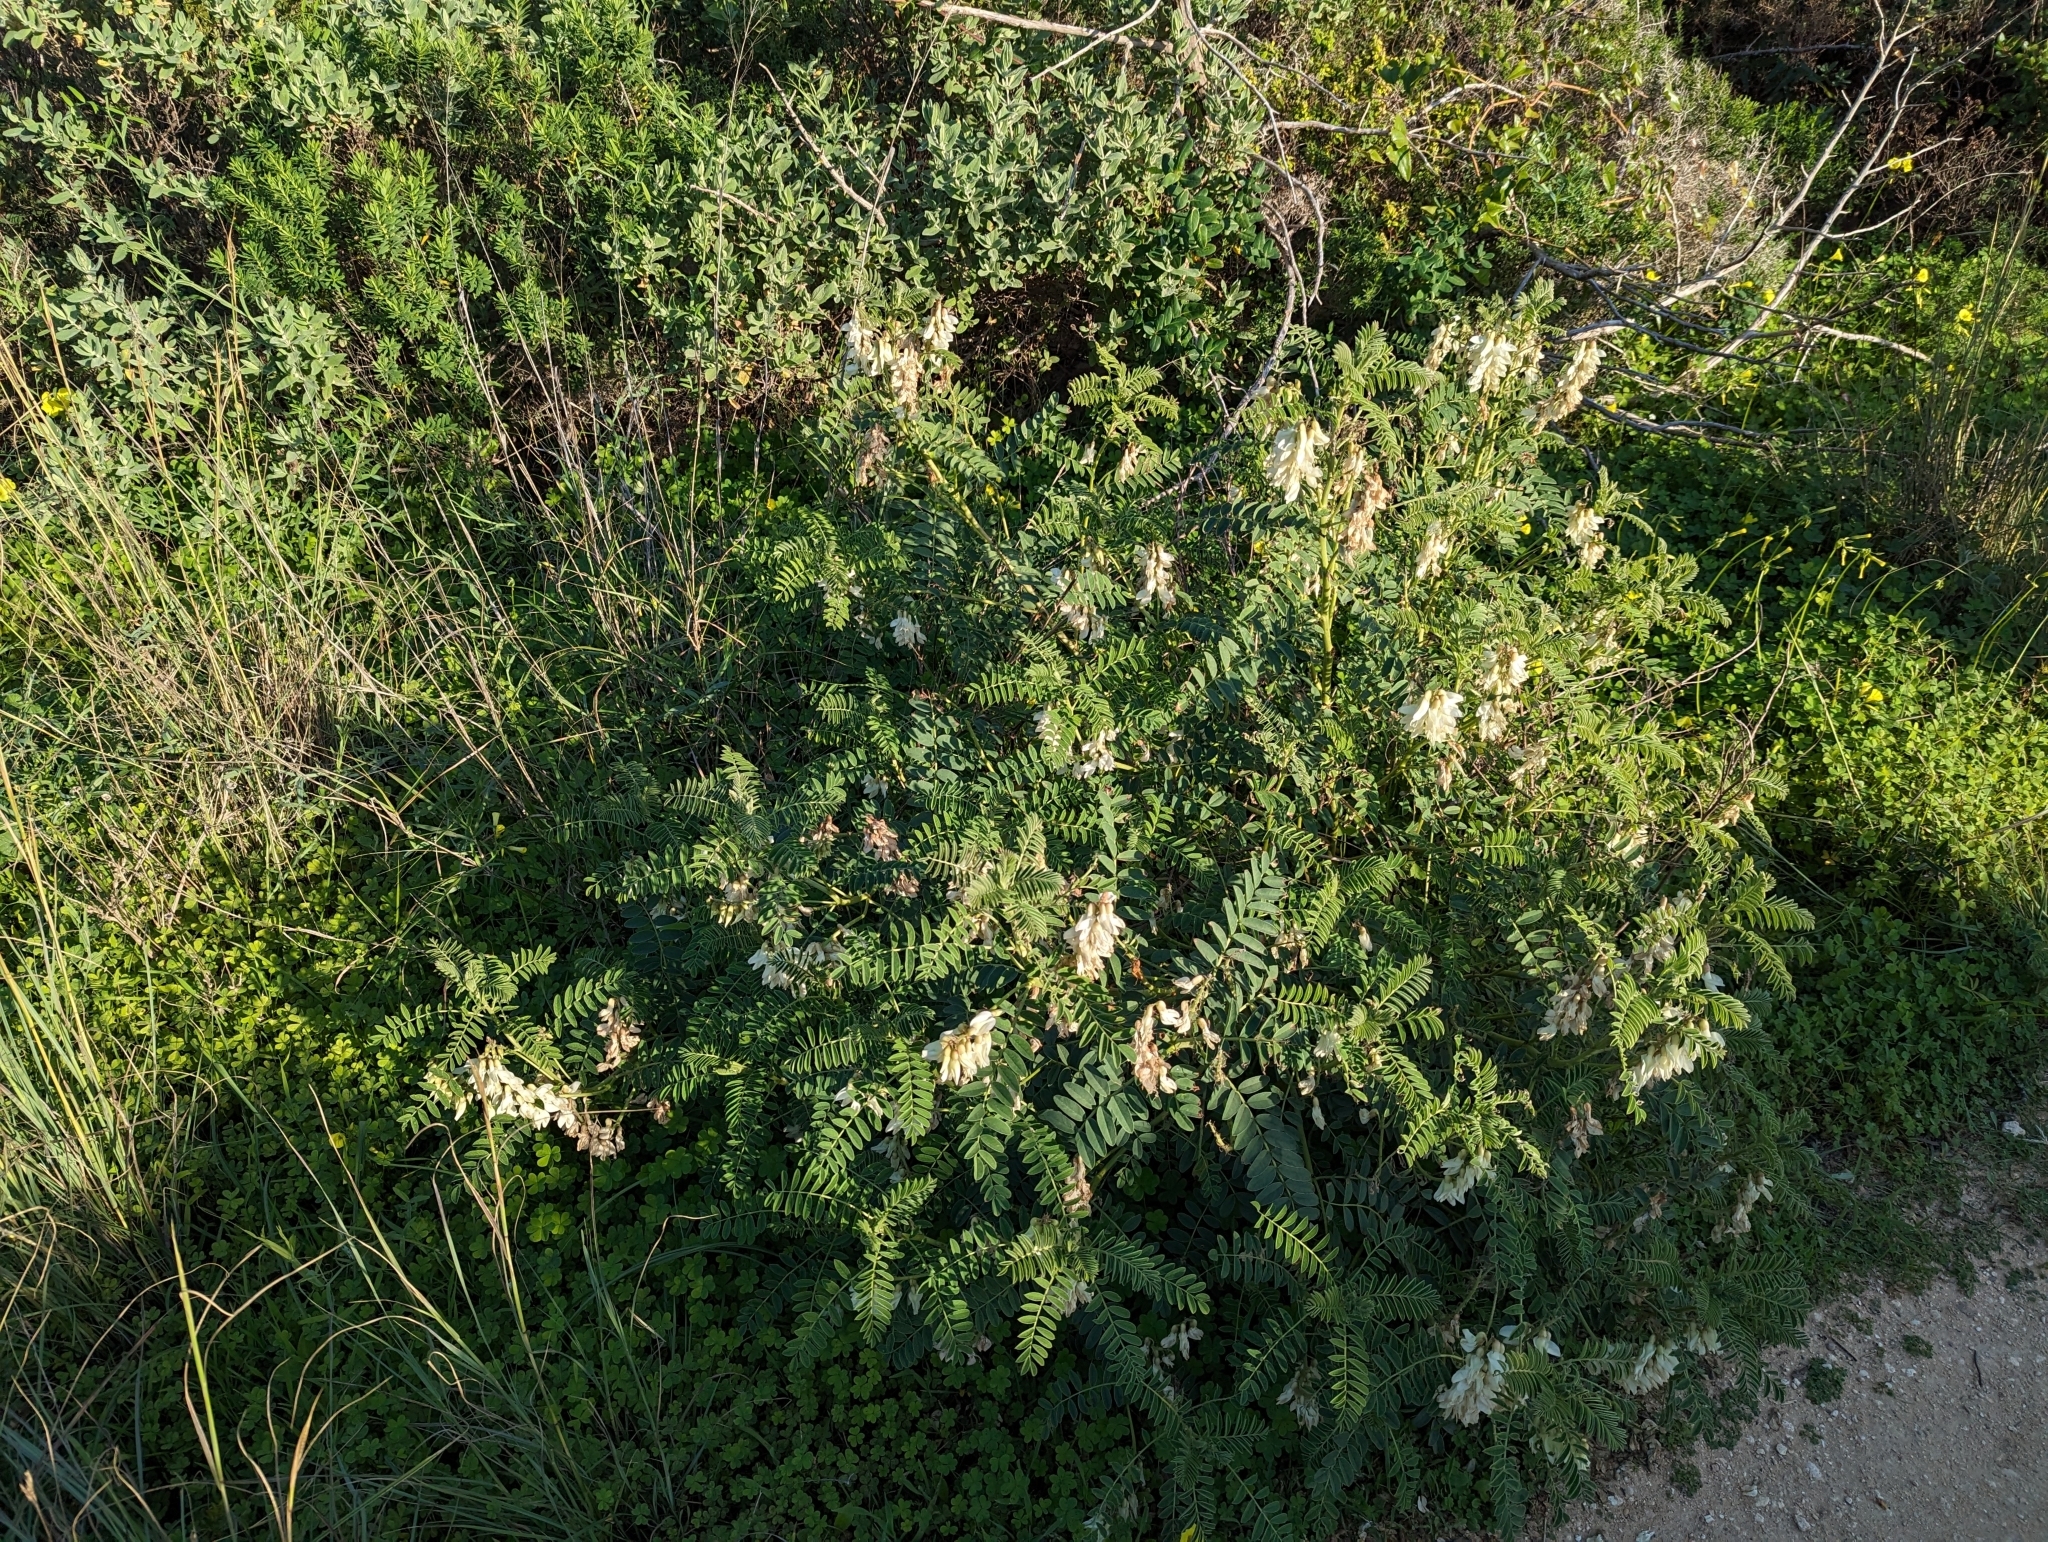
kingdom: Plantae
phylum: Tracheophyta
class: Magnoliopsida
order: Fabales
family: Fabaceae
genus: Erophaca
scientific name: Erophaca baetica
